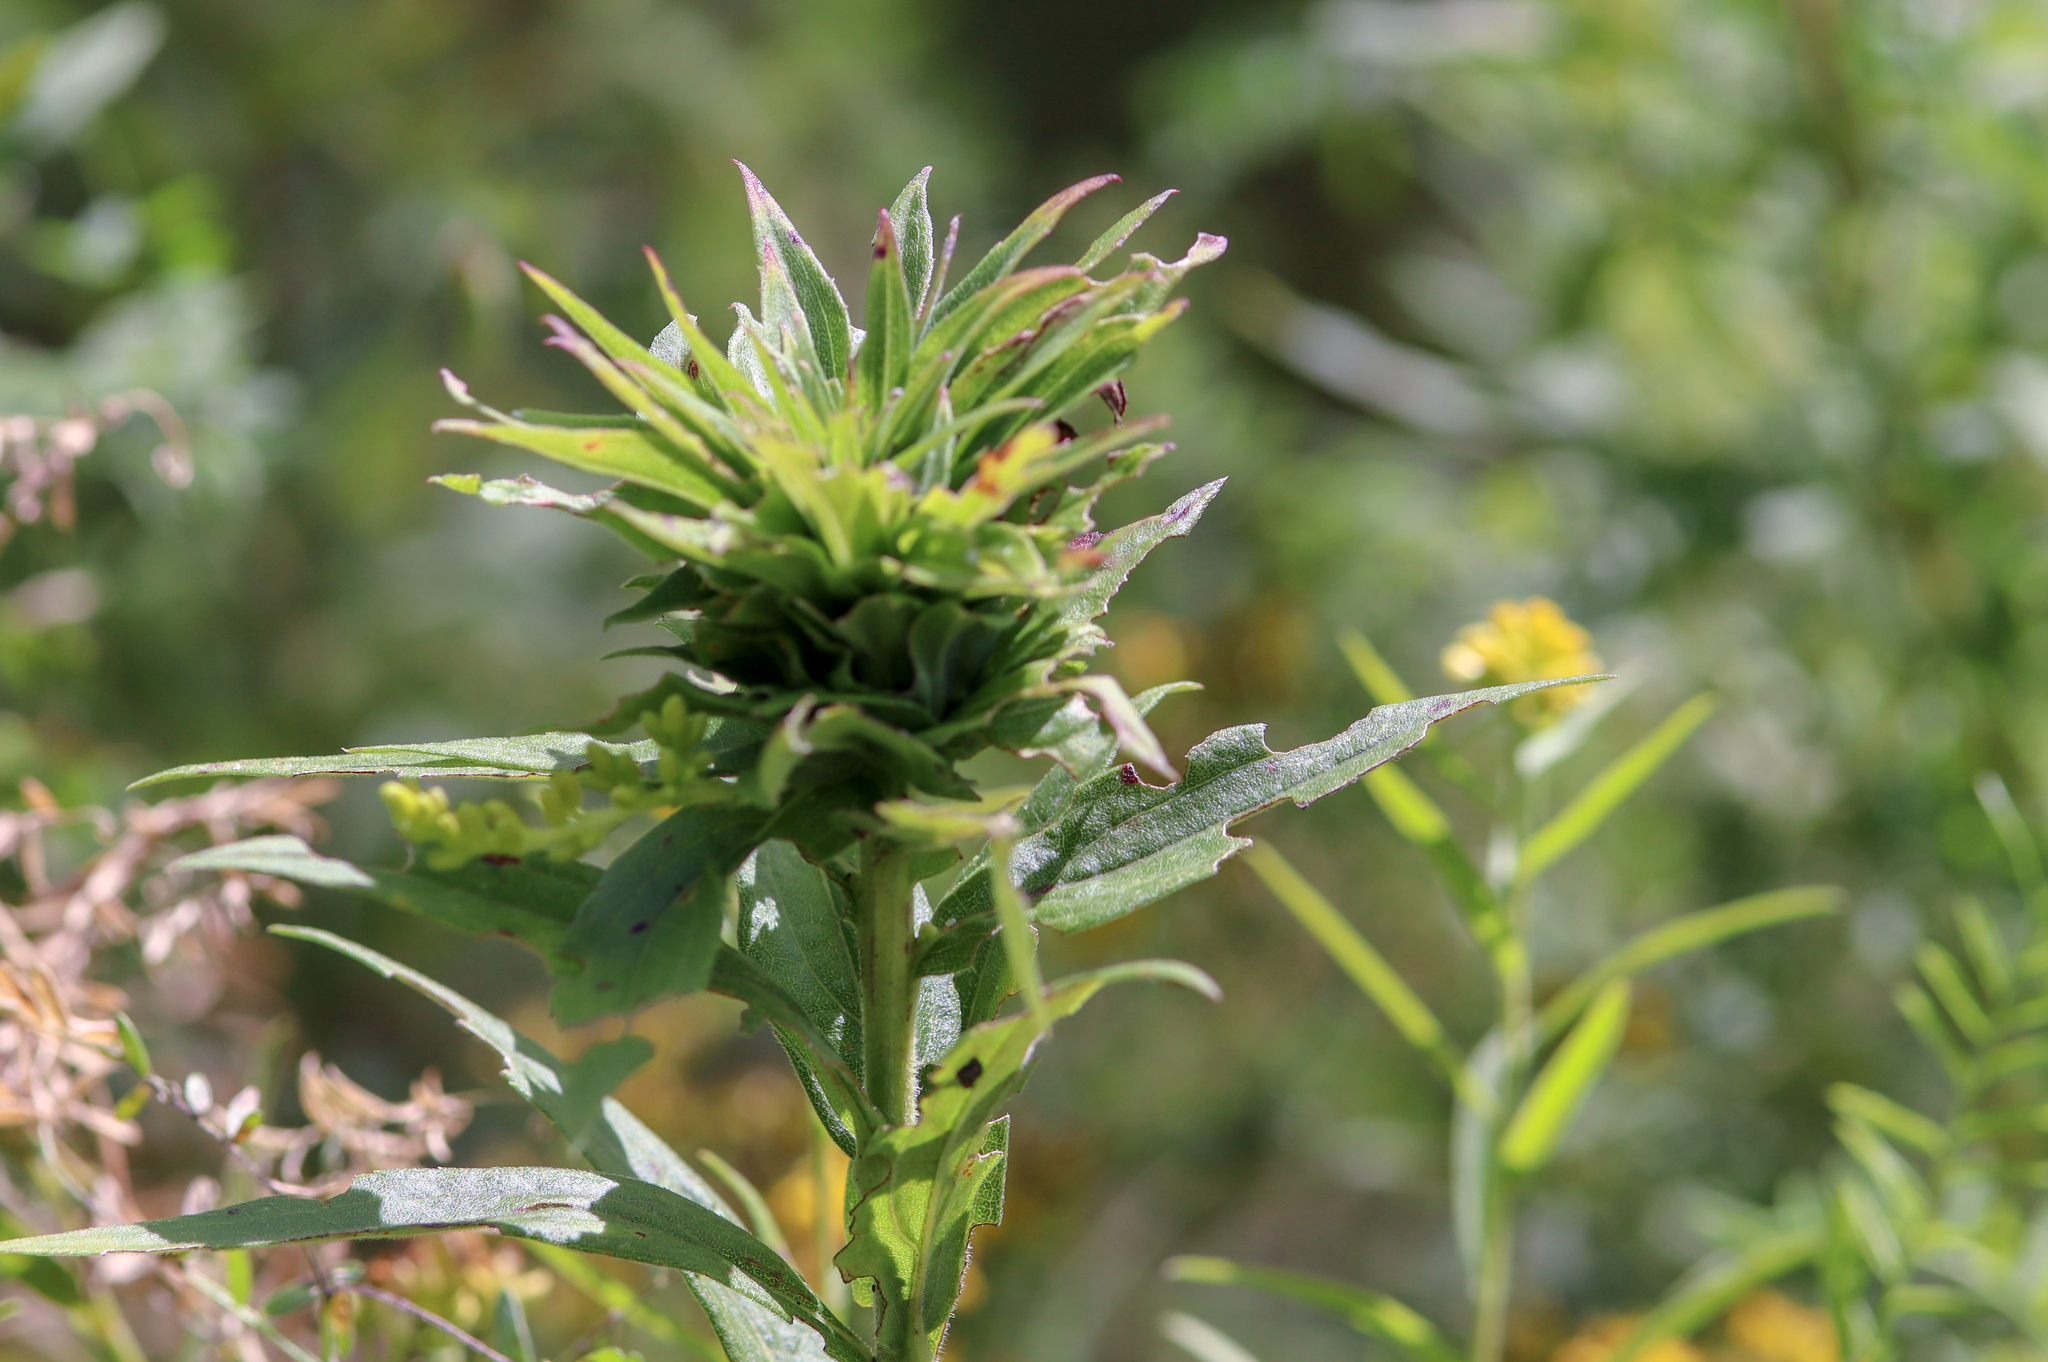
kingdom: Animalia
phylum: Arthropoda
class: Insecta
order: Diptera
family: Cecidomyiidae
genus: Rhopalomyia
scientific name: Rhopalomyia solidaginis
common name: Goldenrod bunch gall midge
